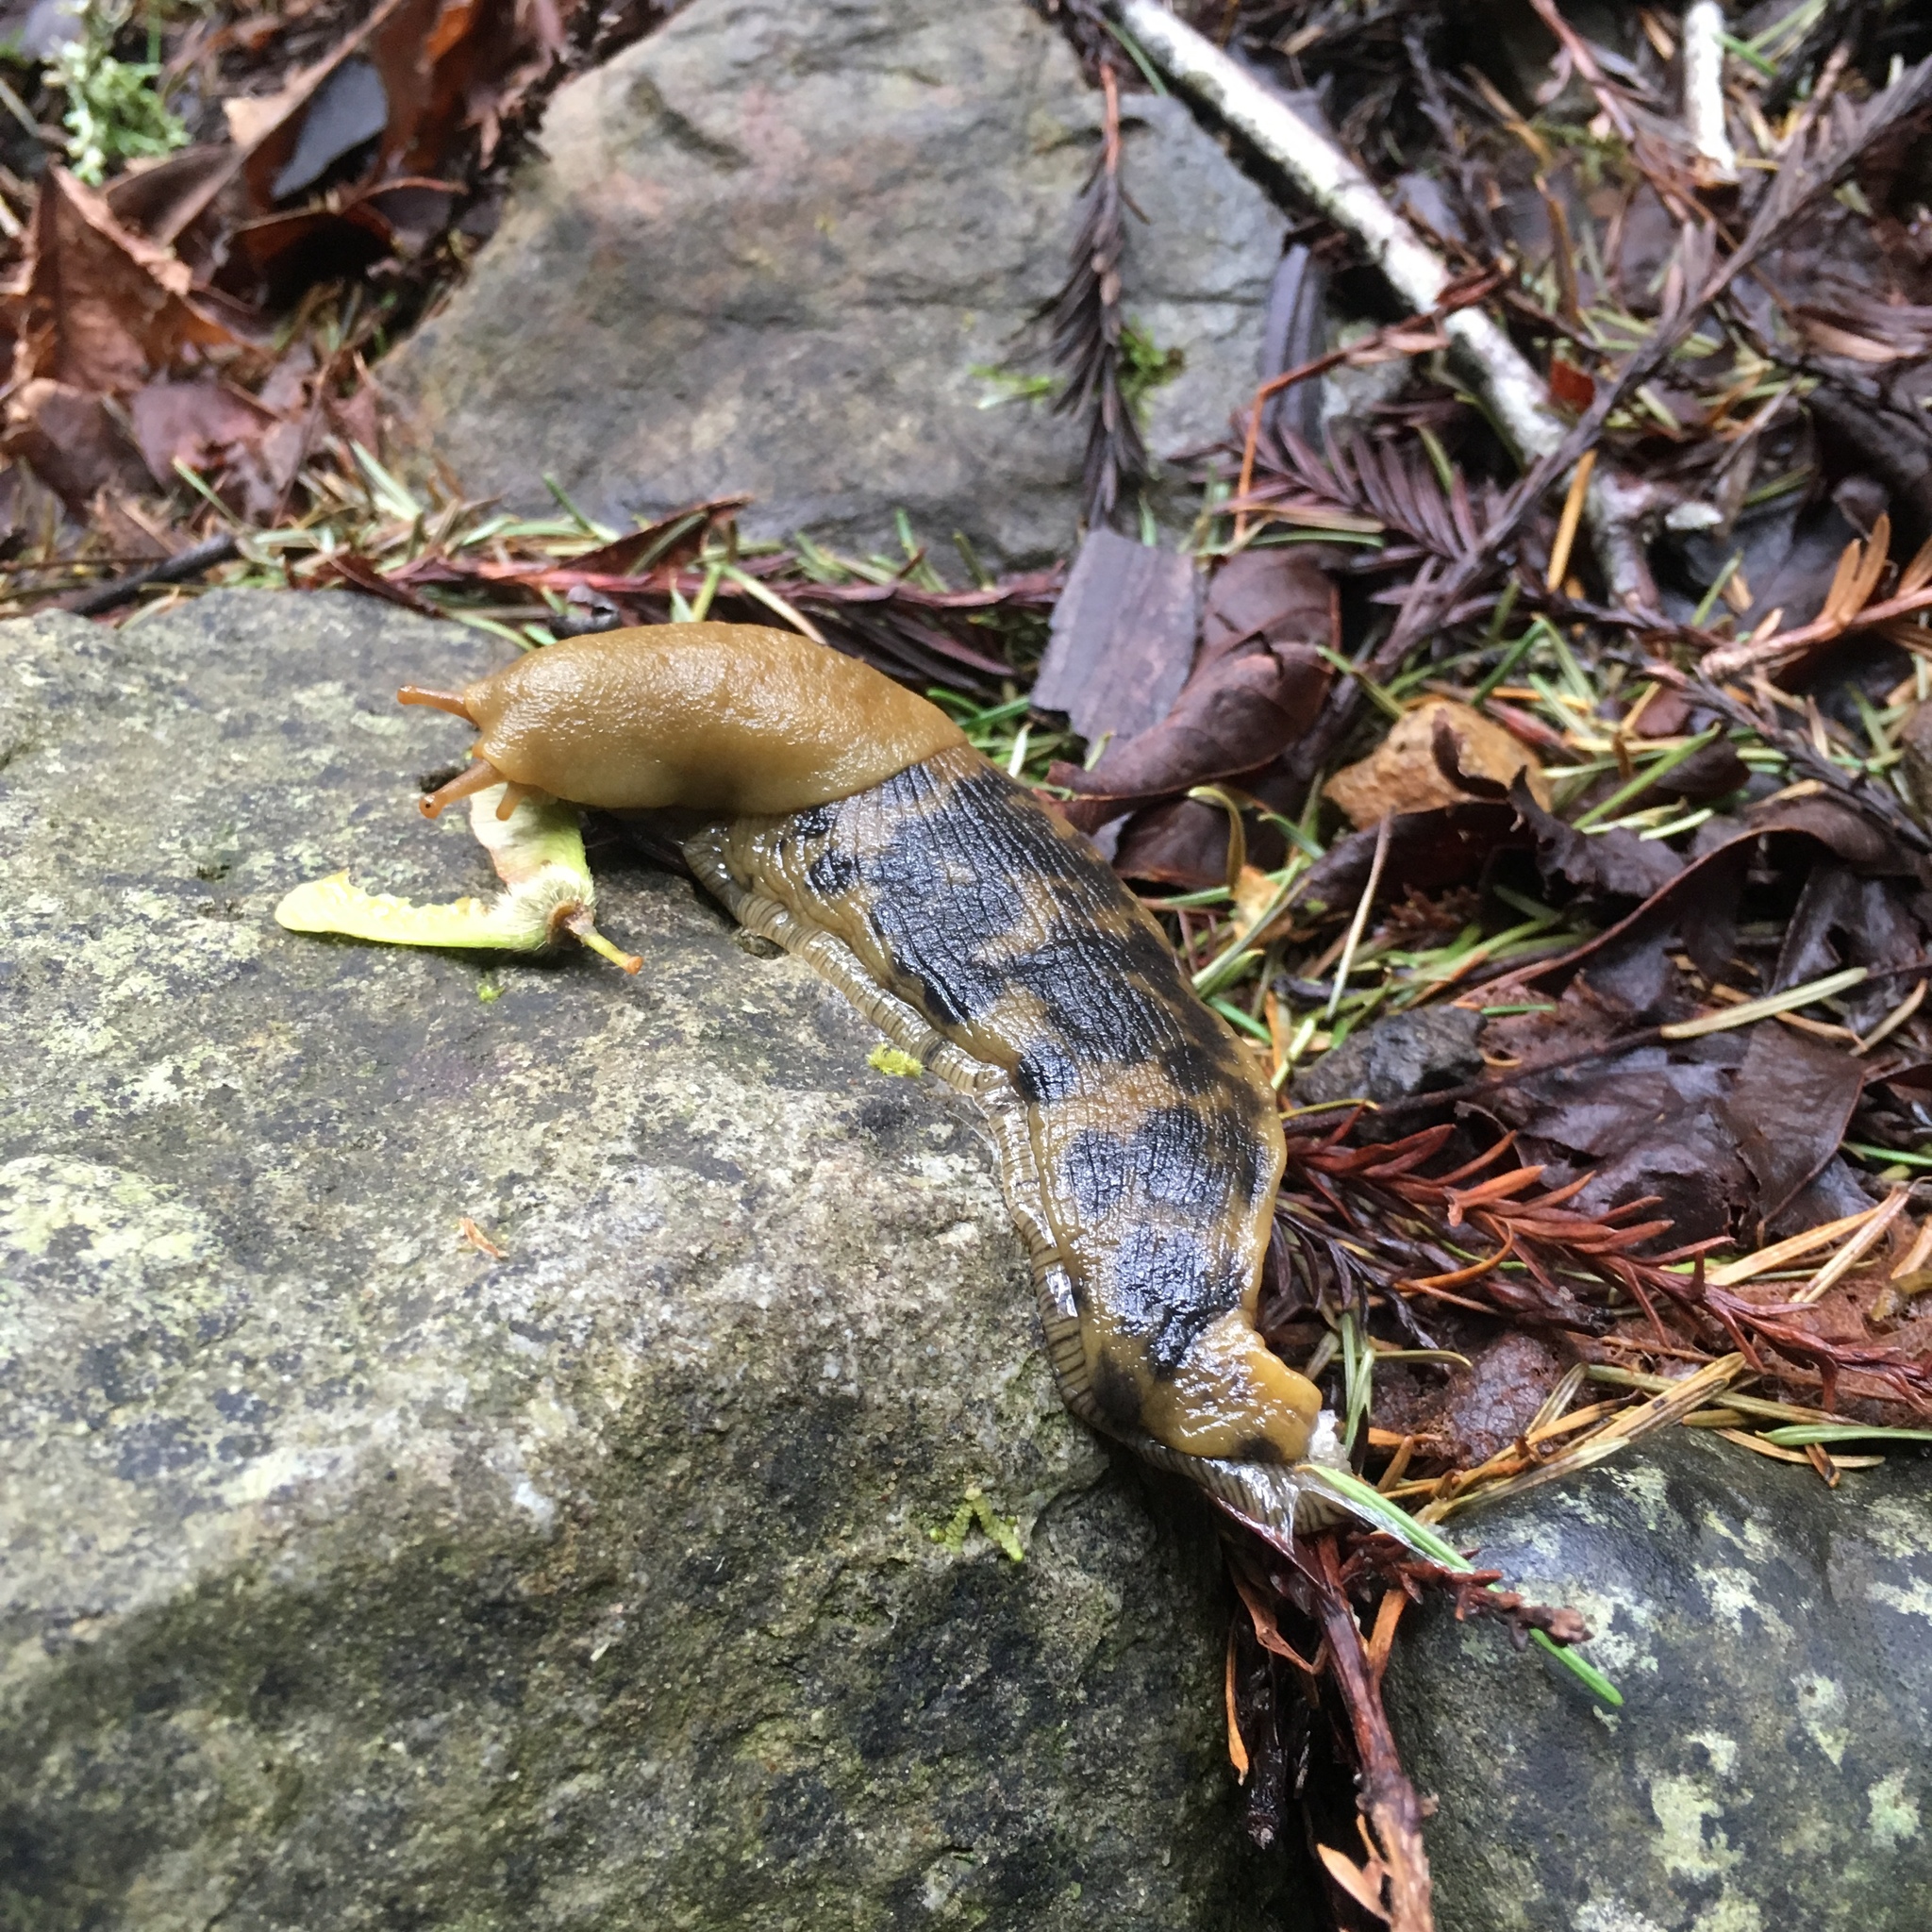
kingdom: Animalia
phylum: Mollusca
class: Gastropoda
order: Stylommatophora
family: Ariolimacidae
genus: Ariolimax
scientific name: Ariolimax buttoni
